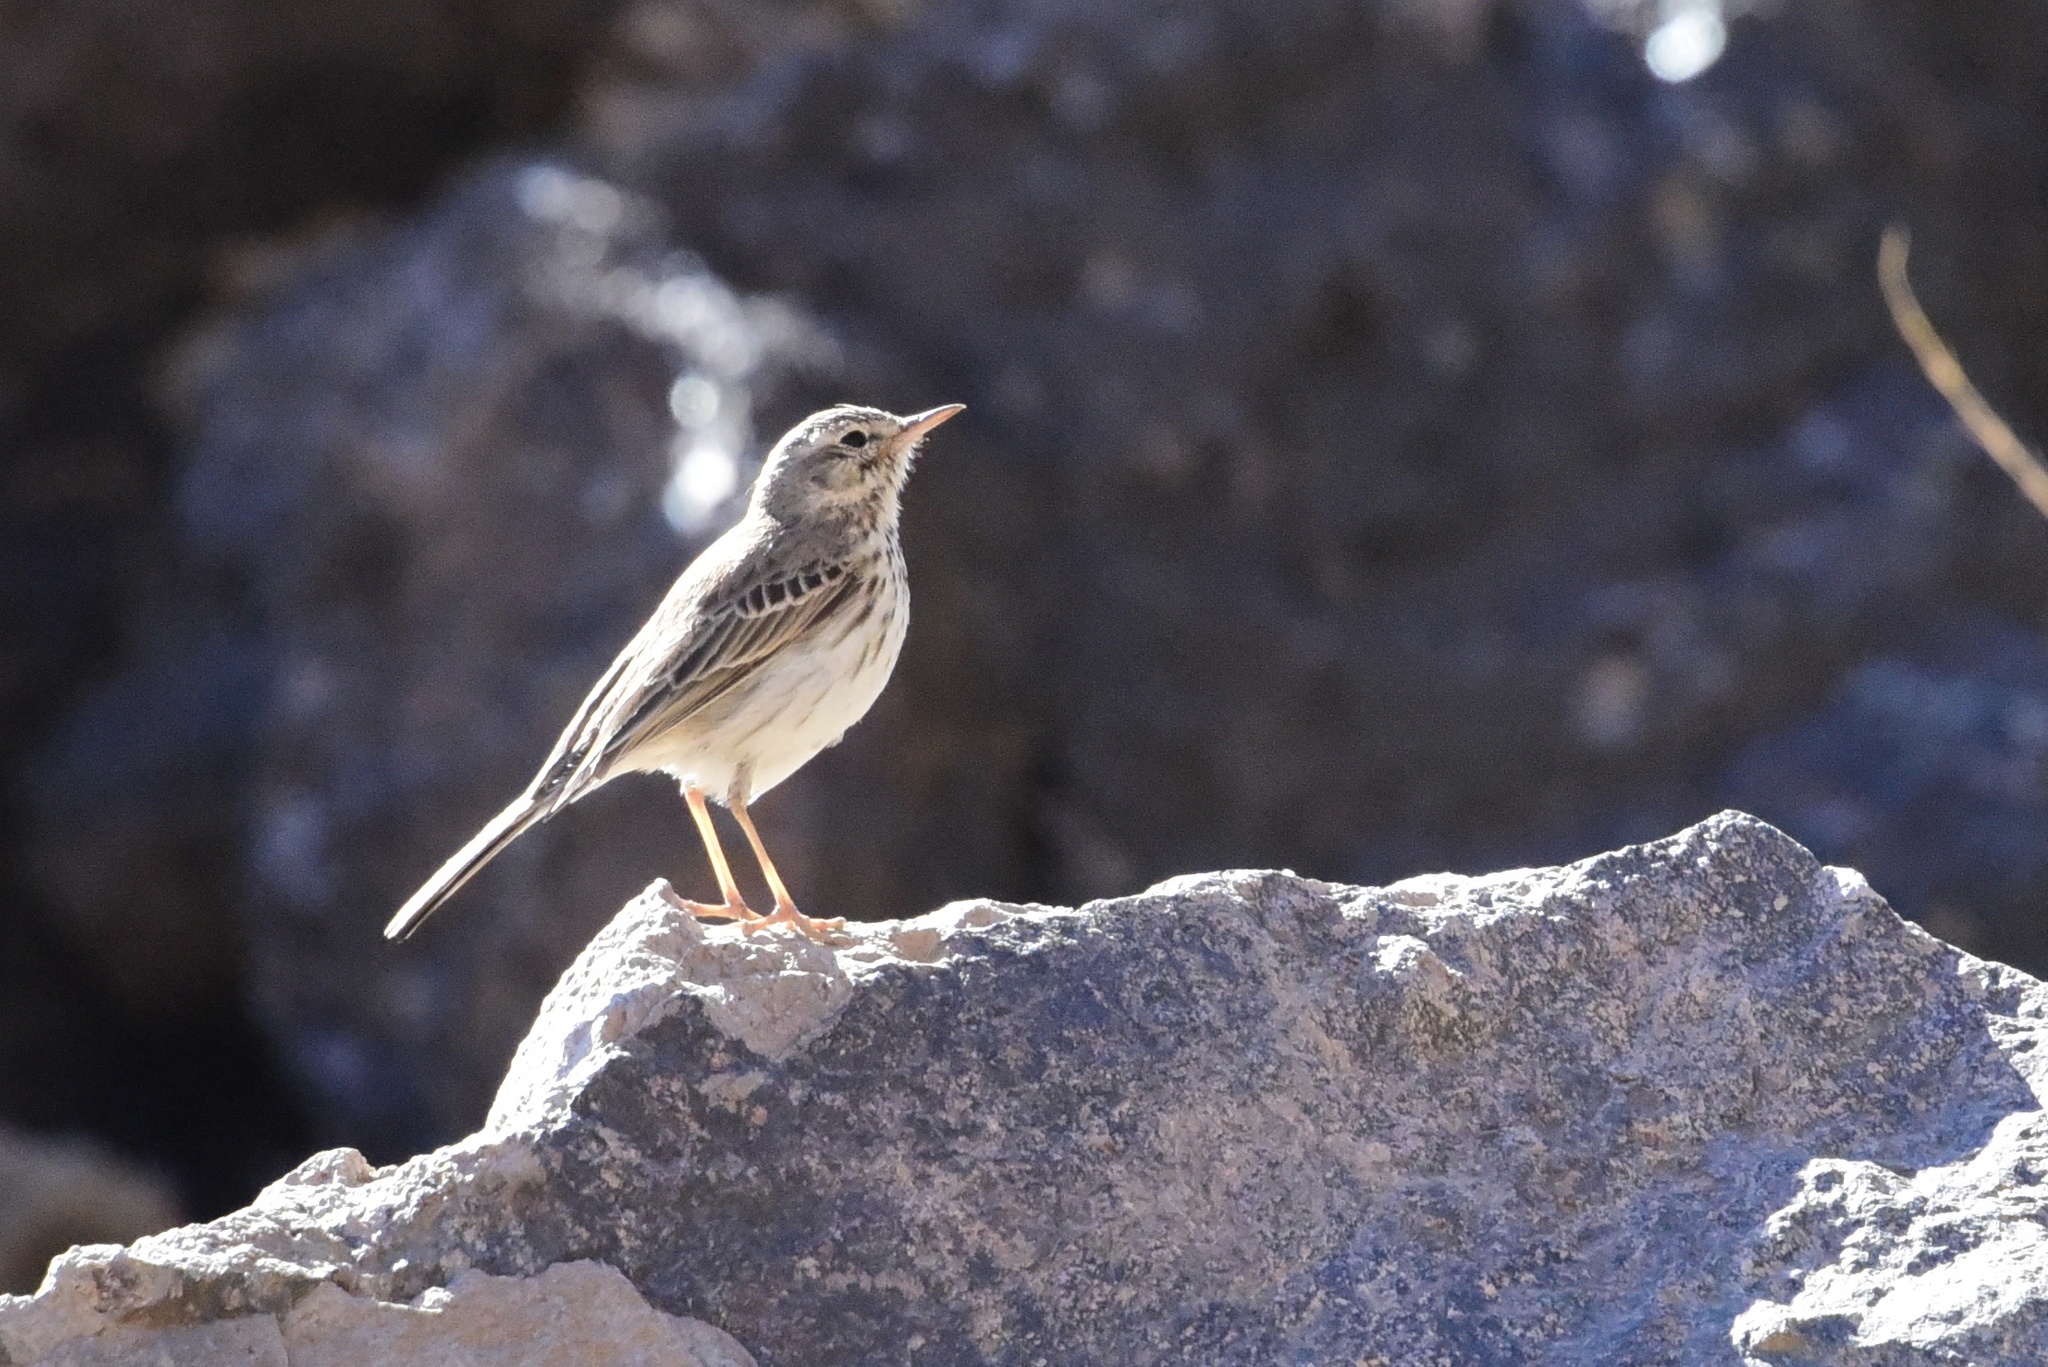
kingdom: Animalia
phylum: Chordata
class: Aves
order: Passeriformes
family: Motacillidae
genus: Anthus
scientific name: Anthus berthelotii
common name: Berthelot's pipit
